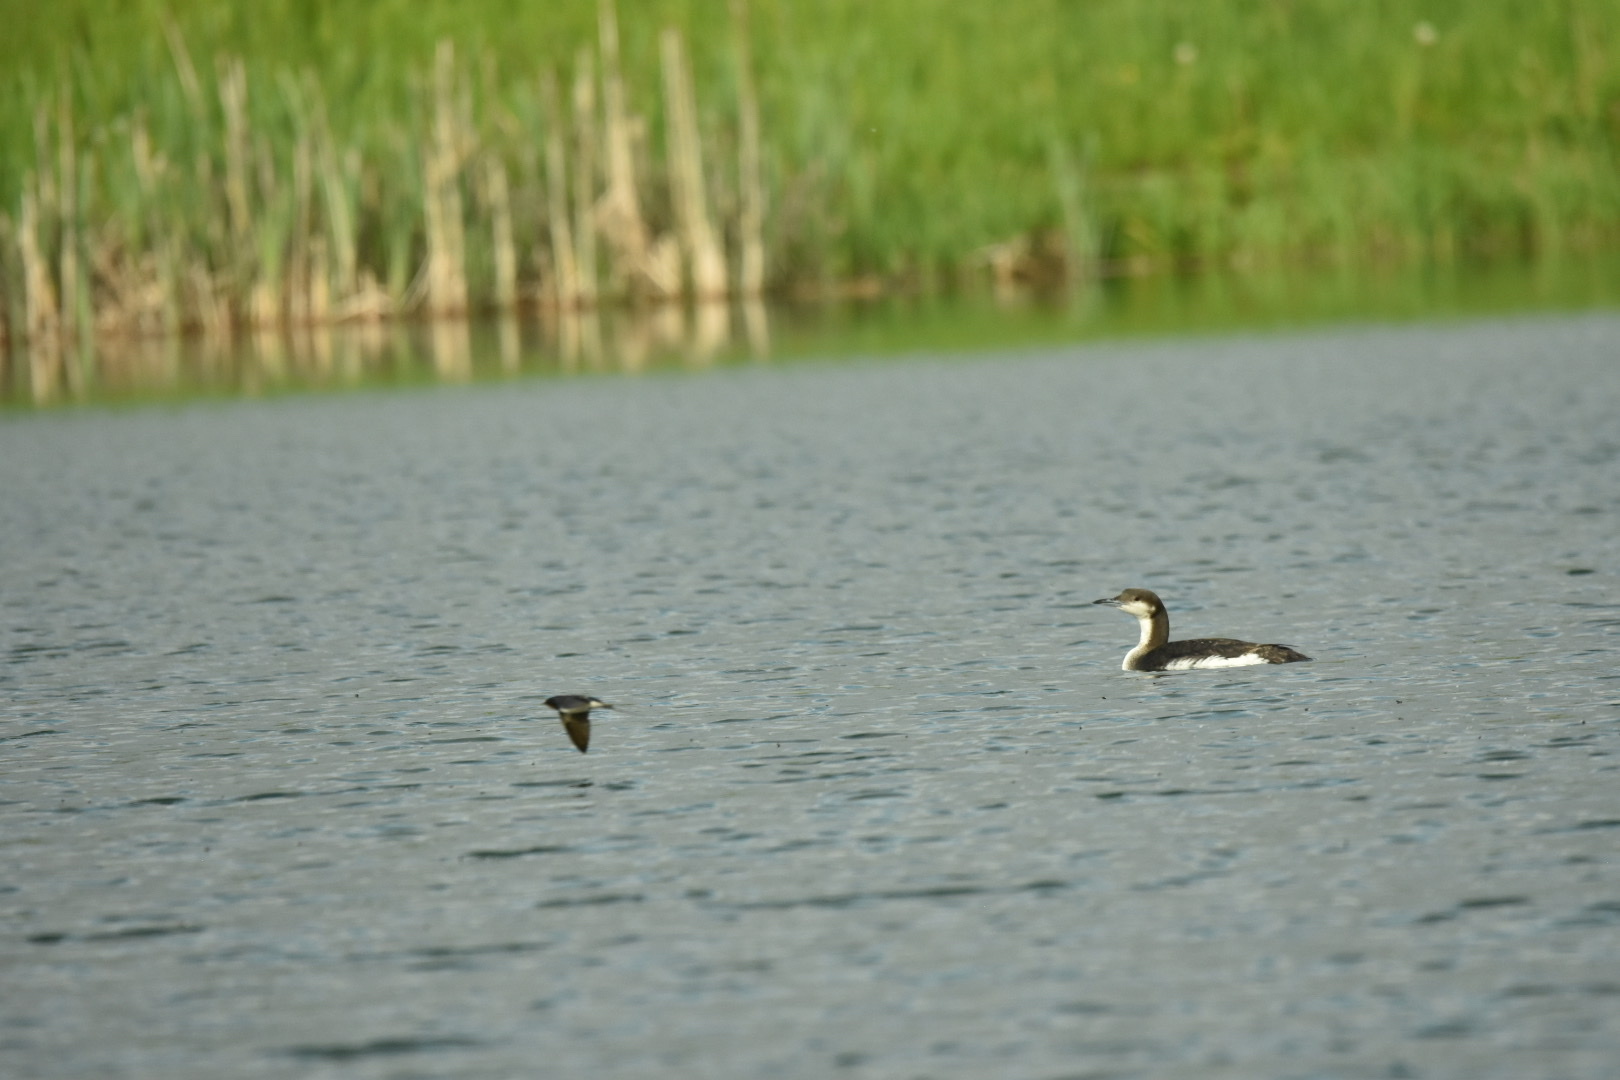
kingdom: Animalia
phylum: Chordata
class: Aves
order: Gaviiformes
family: Gaviidae
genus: Gavia
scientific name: Gavia arctica
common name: Black-throated loon
